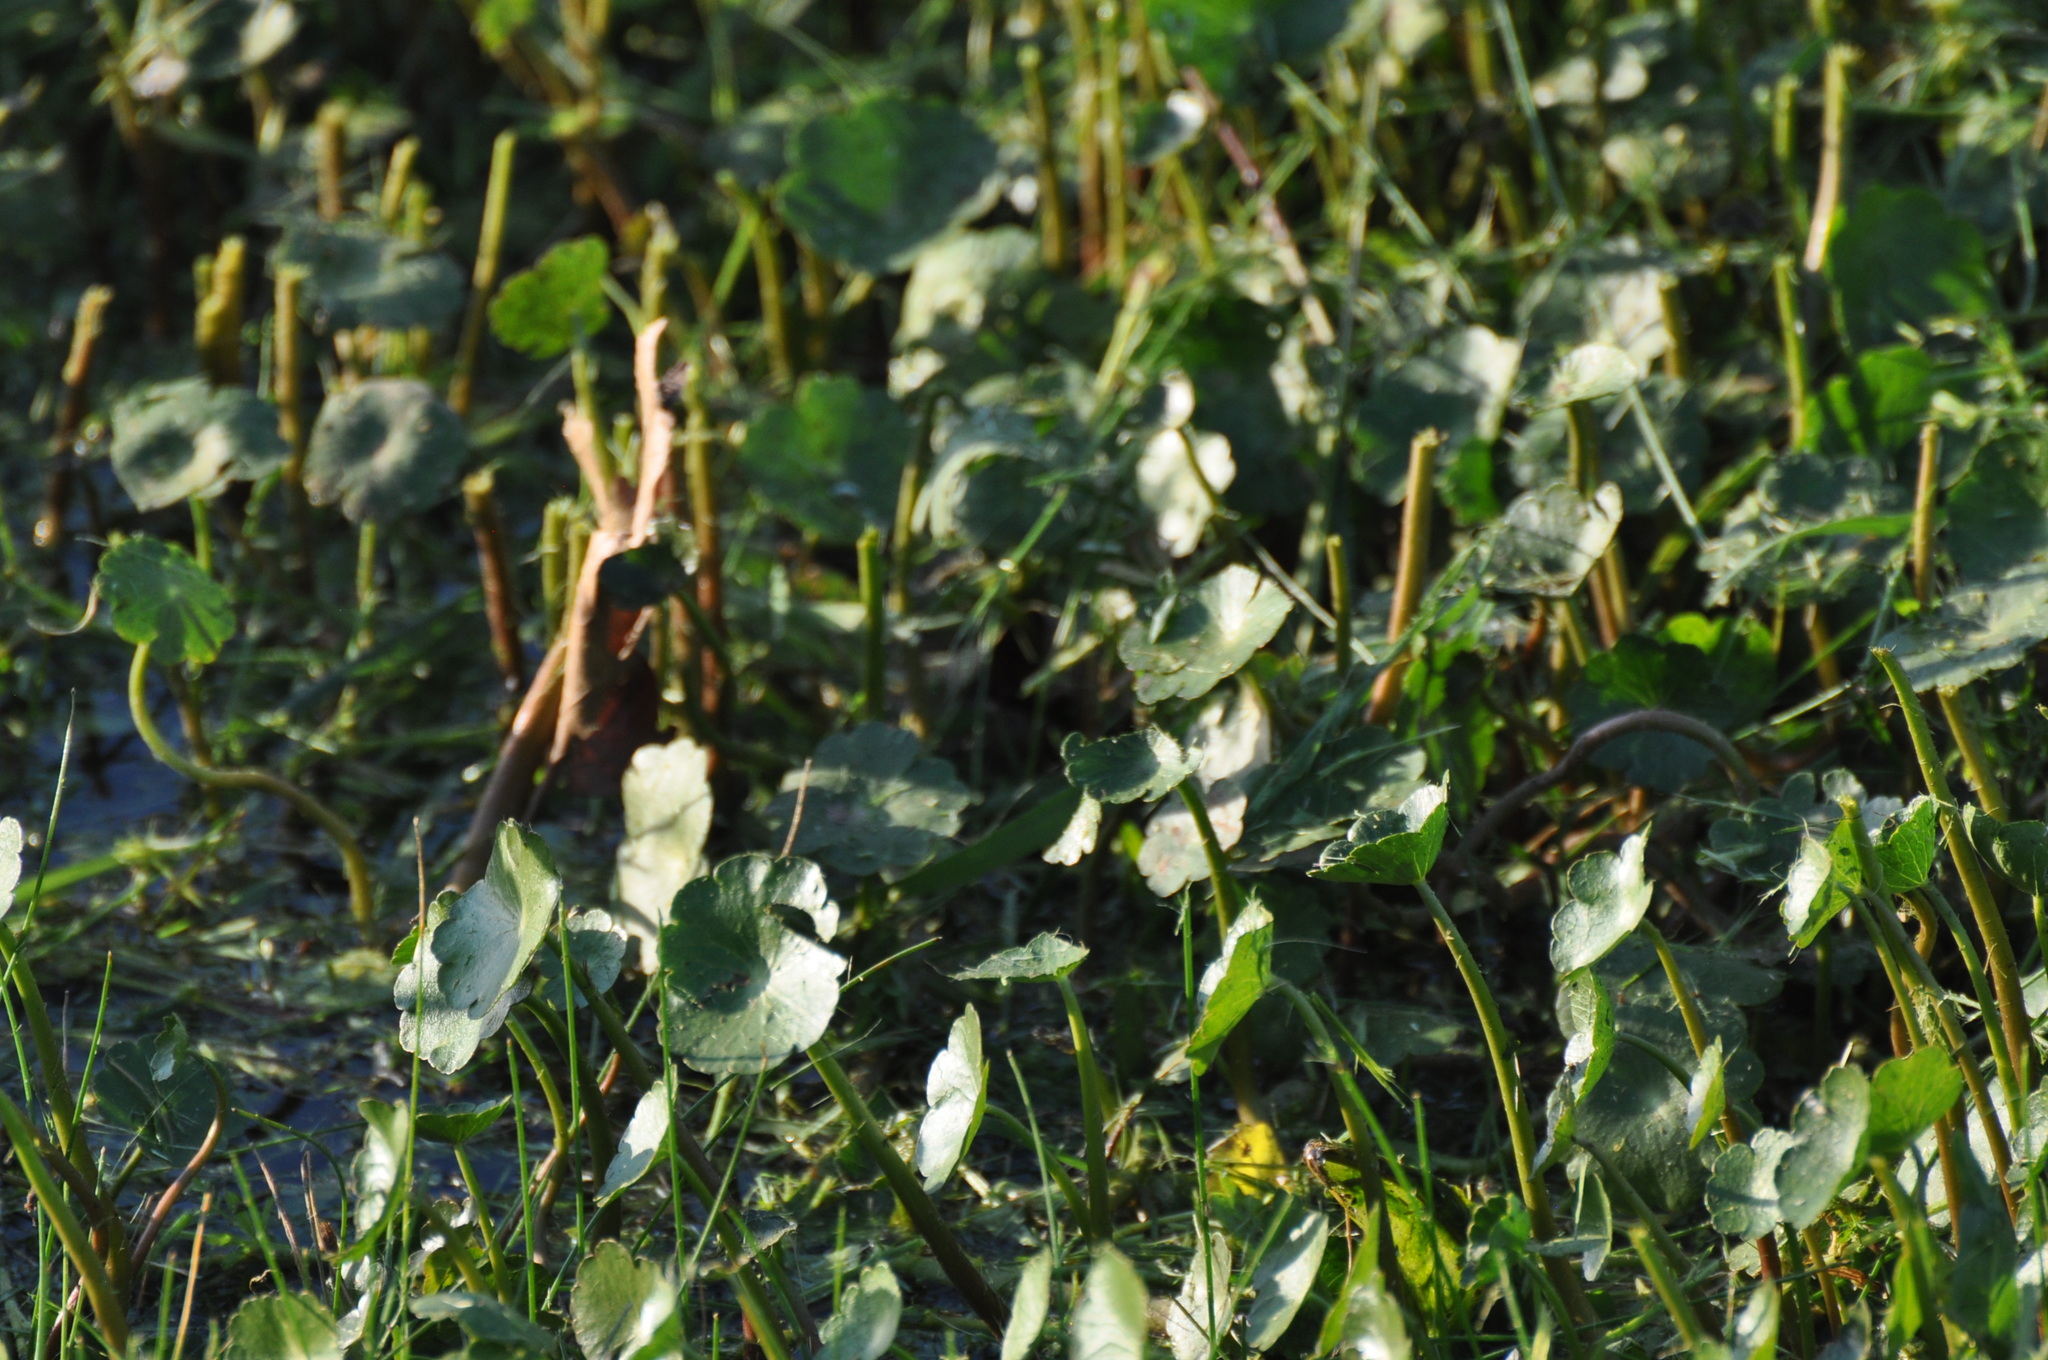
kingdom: Plantae
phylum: Tracheophyta
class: Magnoliopsida
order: Apiales
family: Araliaceae
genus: Hydrocotyle
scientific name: Hydrocotyle ranunculoides
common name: Floating pennywort
